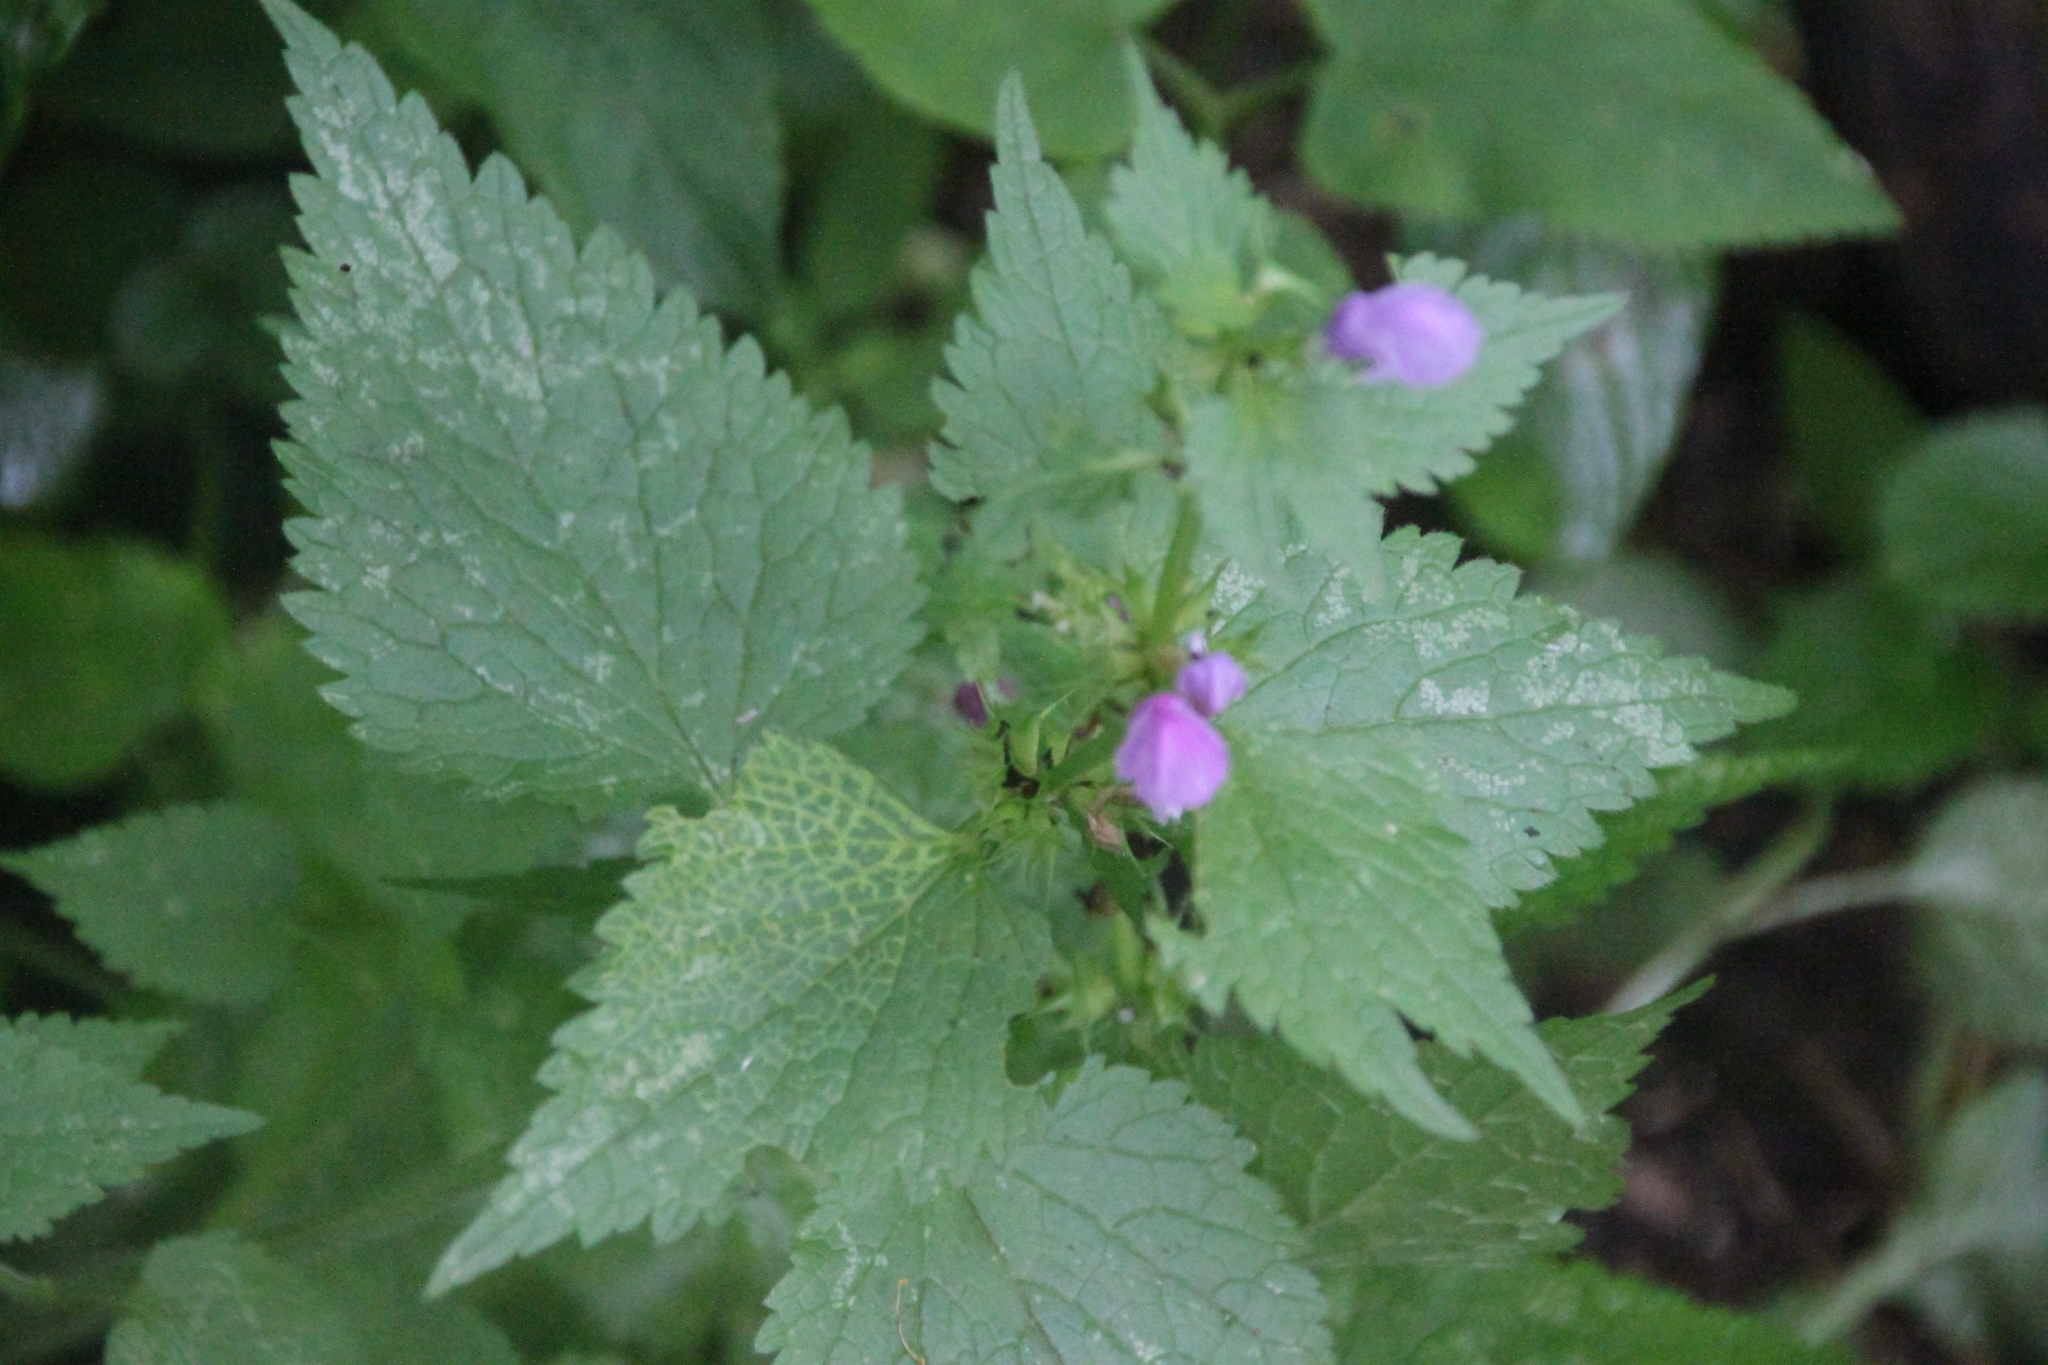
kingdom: Plantae
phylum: Tracheophyta
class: Magnoliopsida
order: Lamiales
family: Lamiaceae
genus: Lamium
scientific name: Lamium maculatum
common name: Spotted dead-nettle
